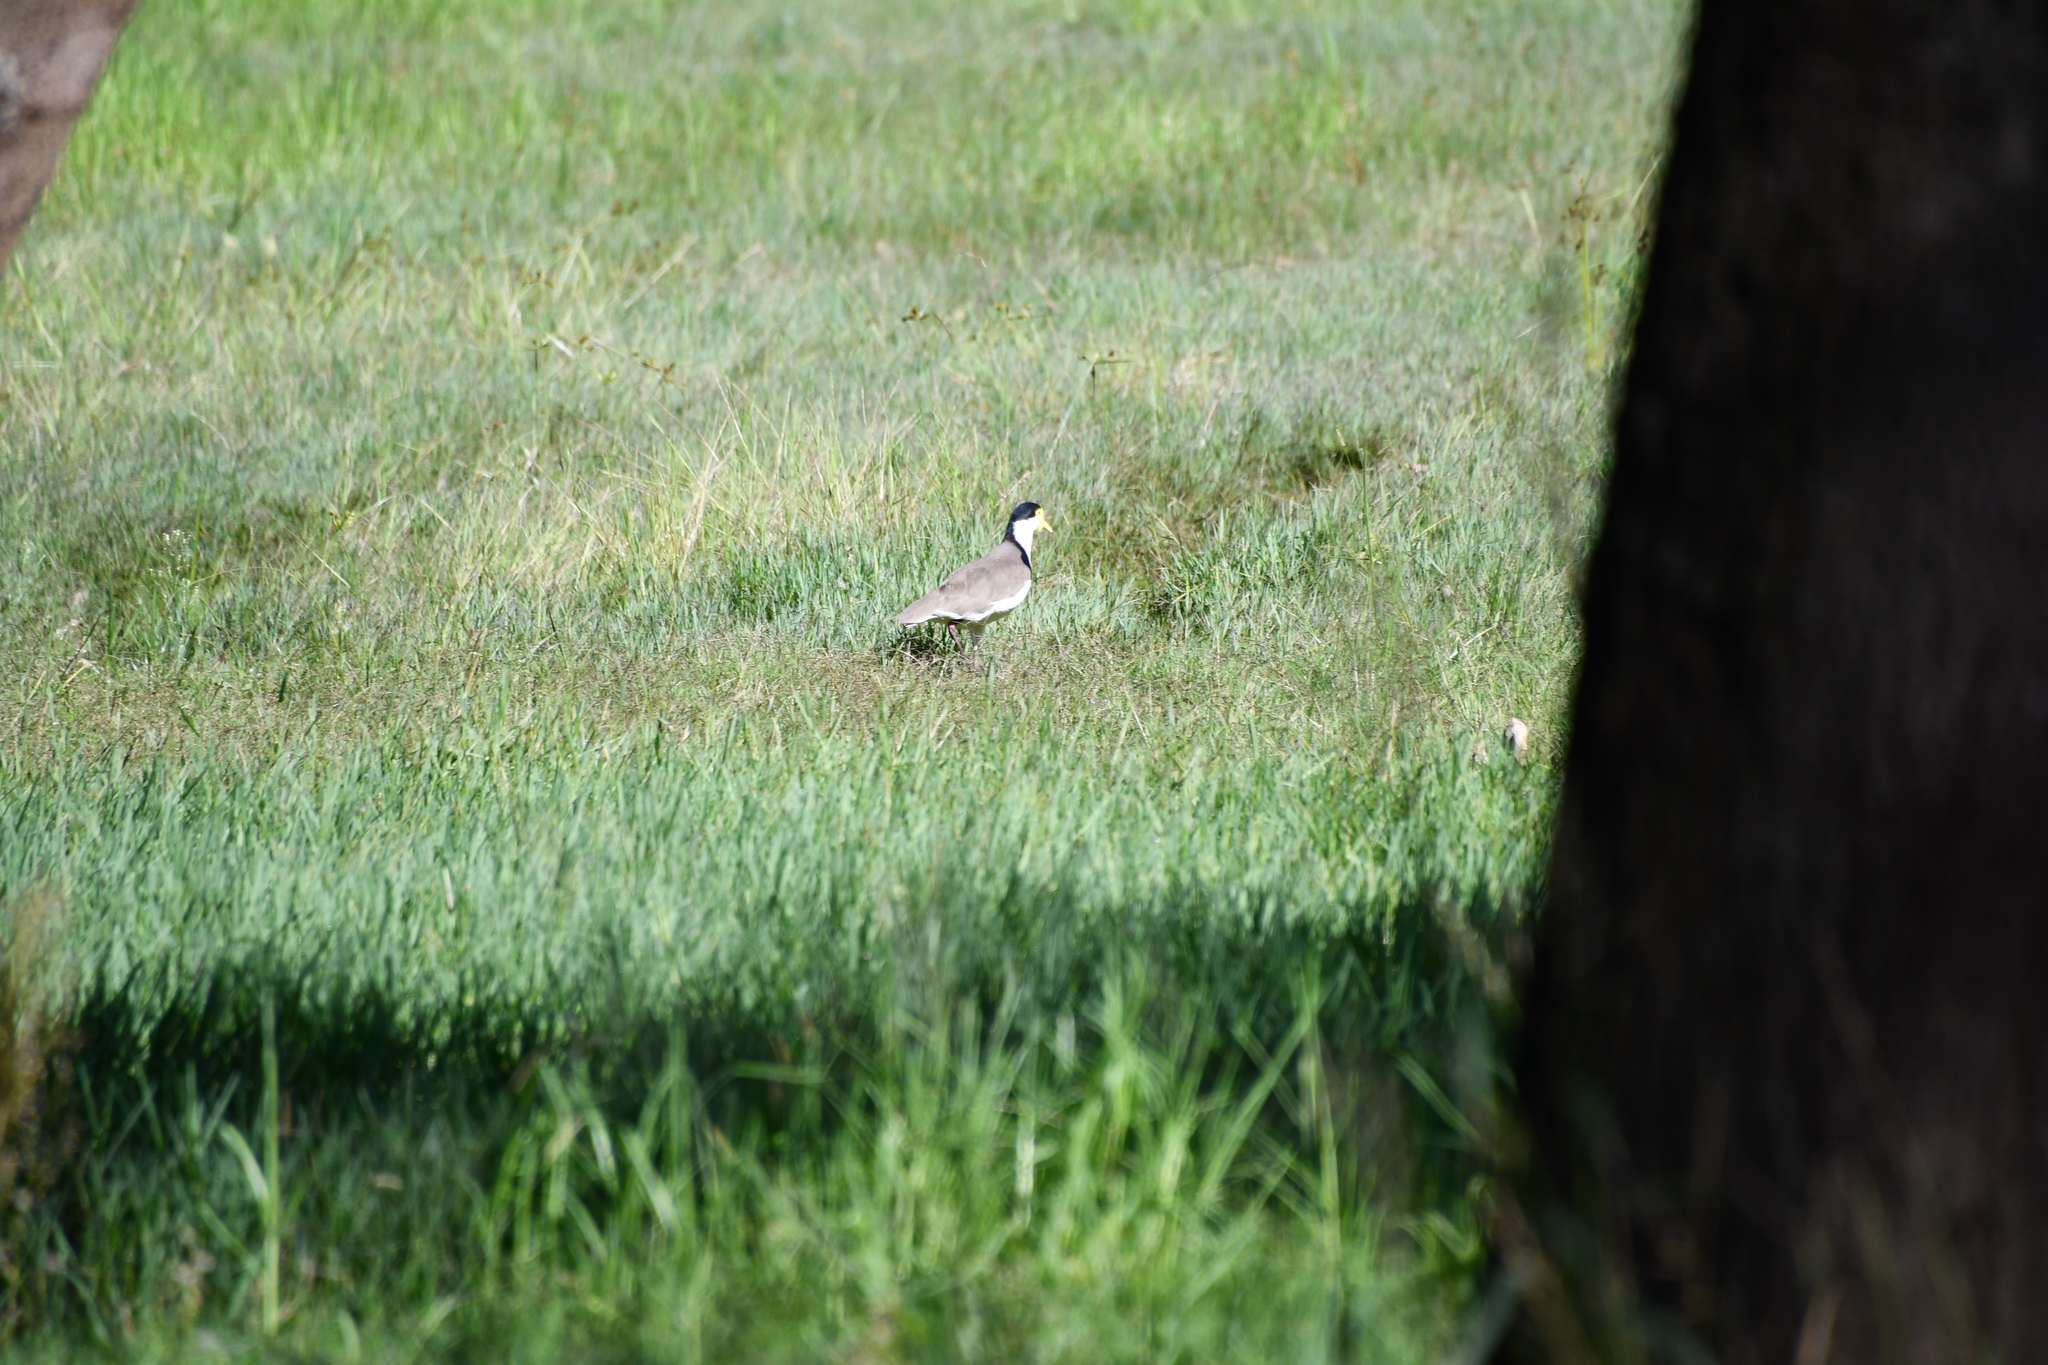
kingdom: Animalia
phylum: Chordata
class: Aves
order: Charadriiformes
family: Charadriidae
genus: Vanellus
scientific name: Vanellus miles
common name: Masked lapwing
